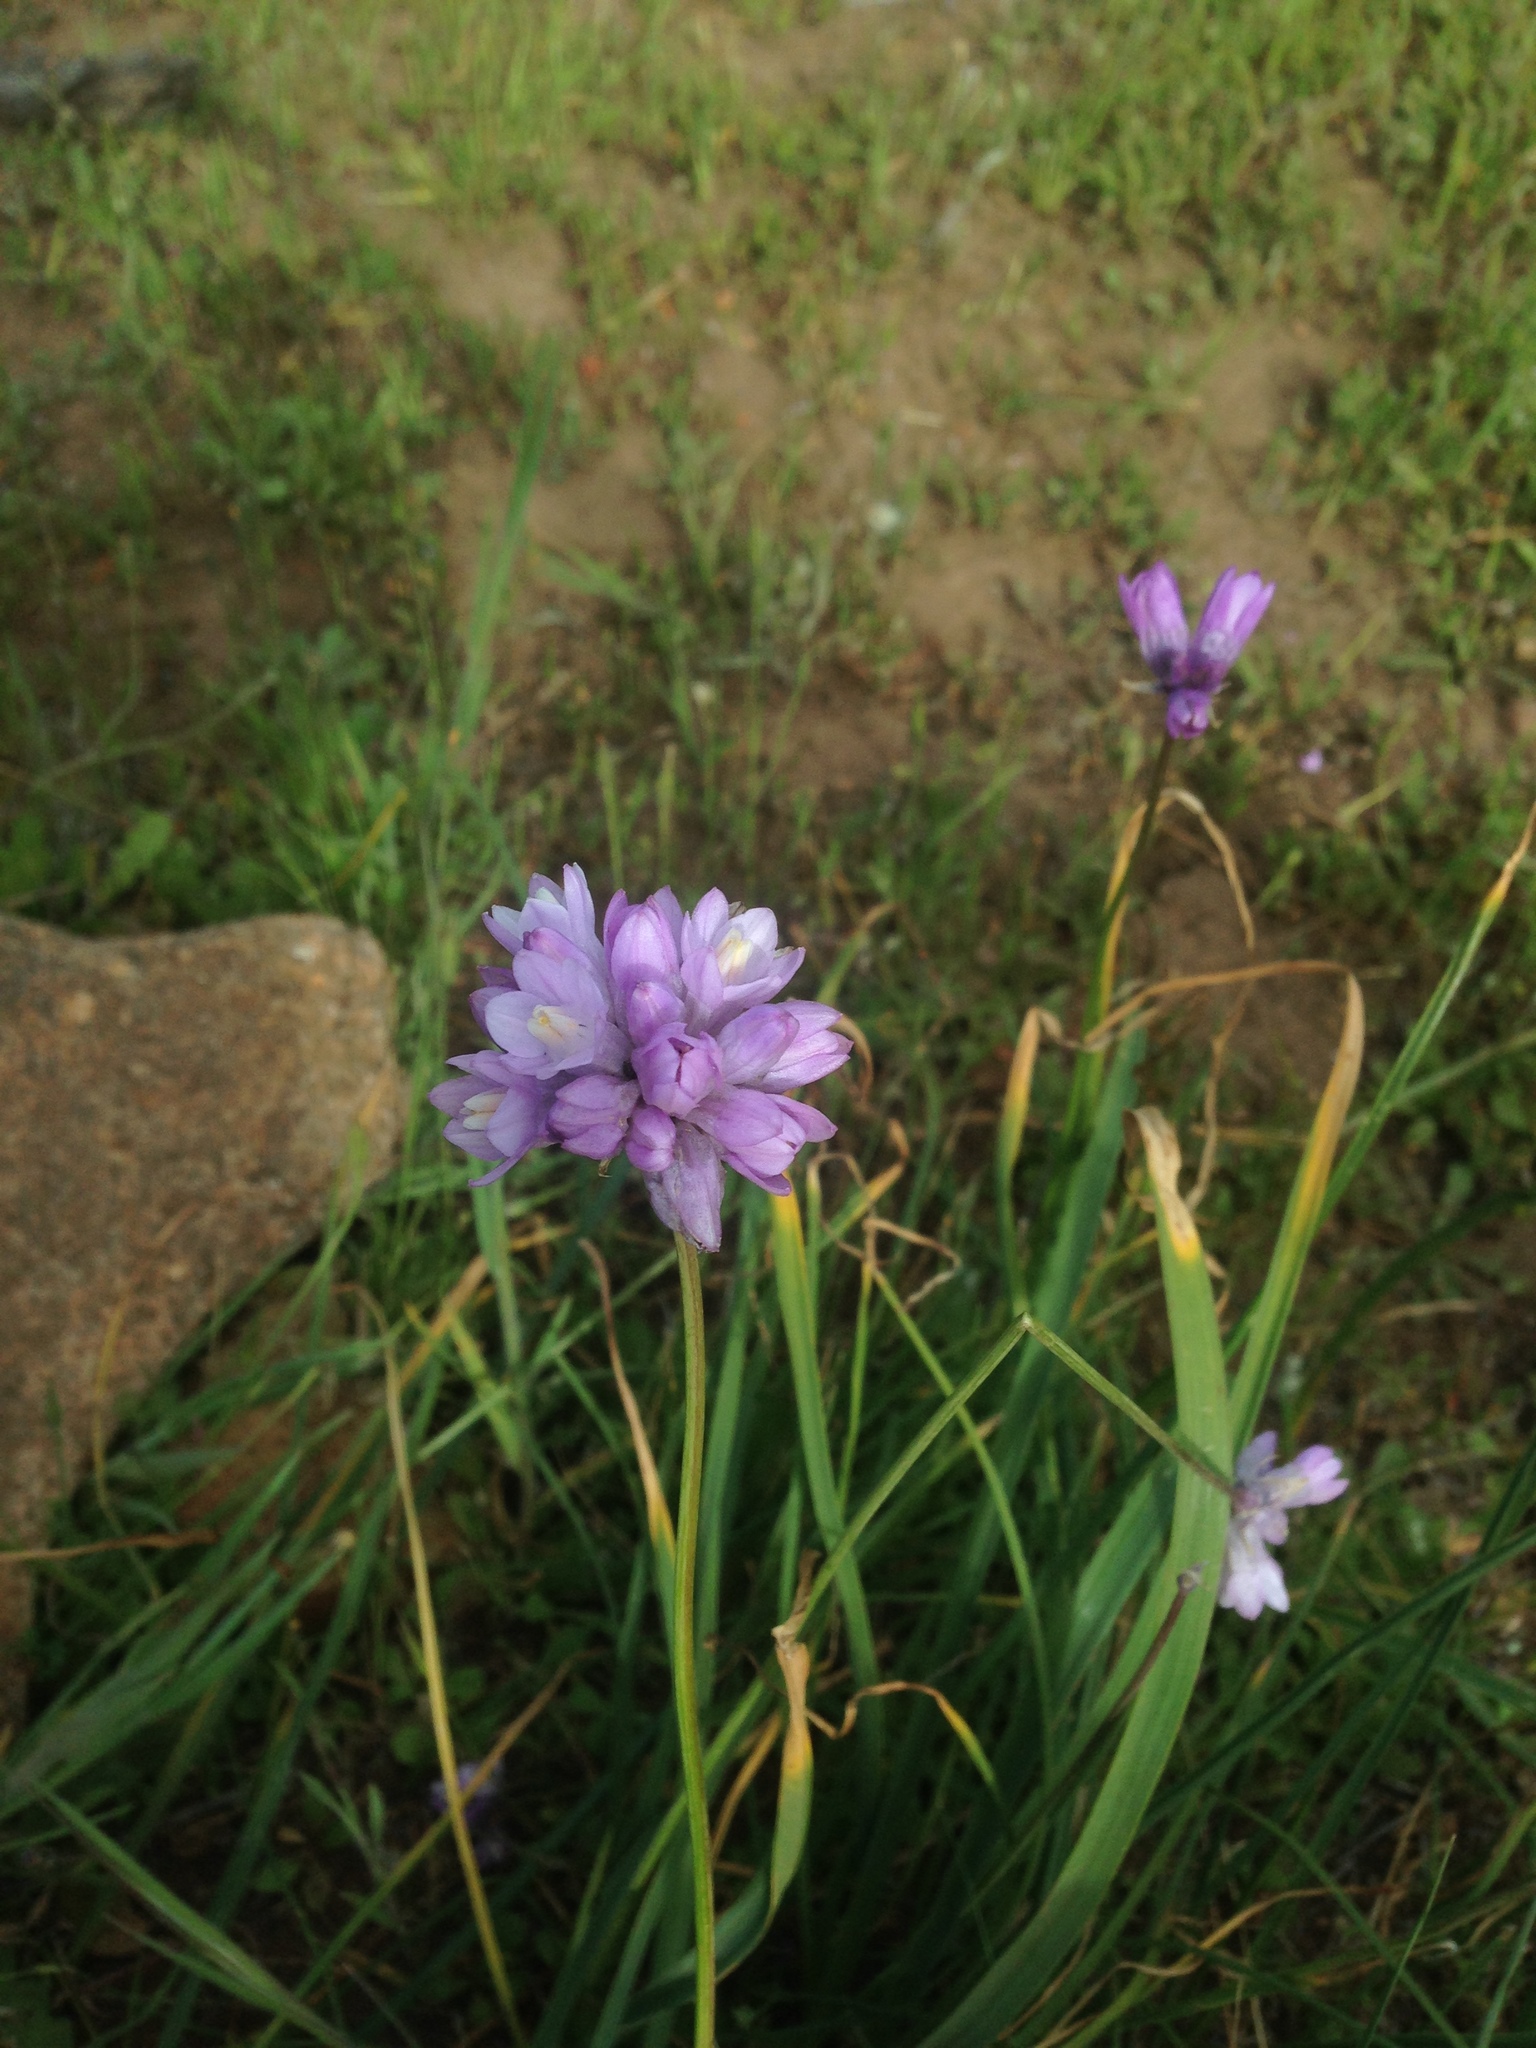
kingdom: Plantae
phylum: Tracheophyta
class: Liliopsida
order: Asparagales
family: Asparagaceae
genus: Dipterostemon
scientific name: Dipterostemon capitatus
